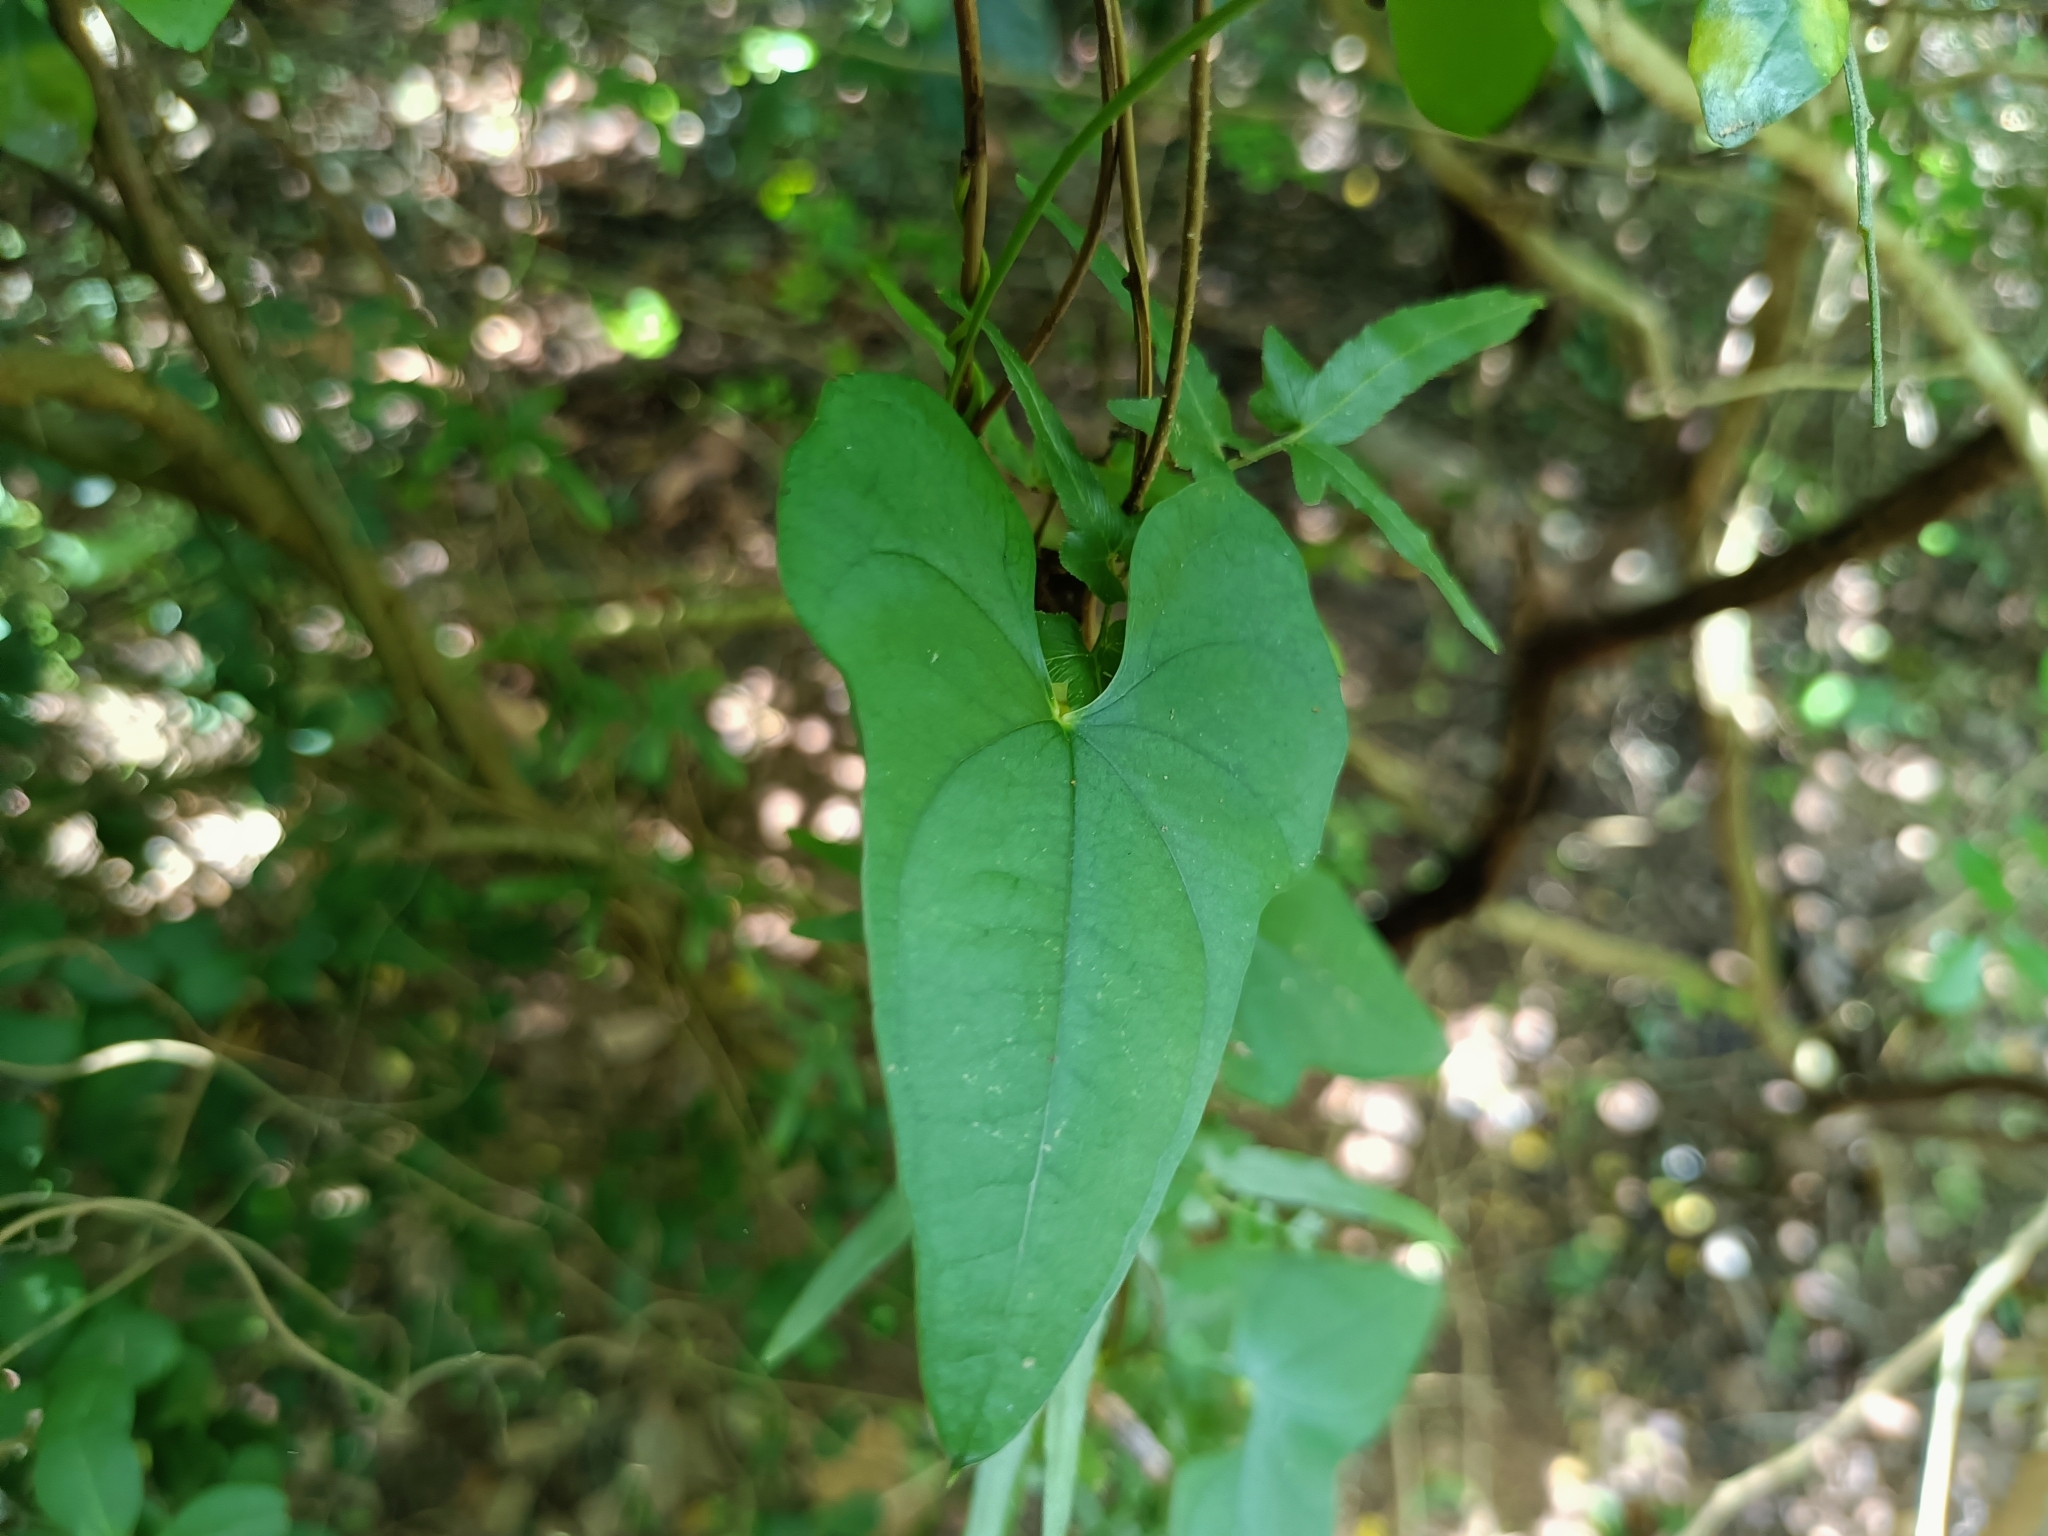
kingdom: Plantae
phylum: Tracheophyta
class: Liliopsida
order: Dioscoreales
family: Dioscoreaceae
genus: Dioscorea
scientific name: Dioscorea polystachya
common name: Chinese yam
